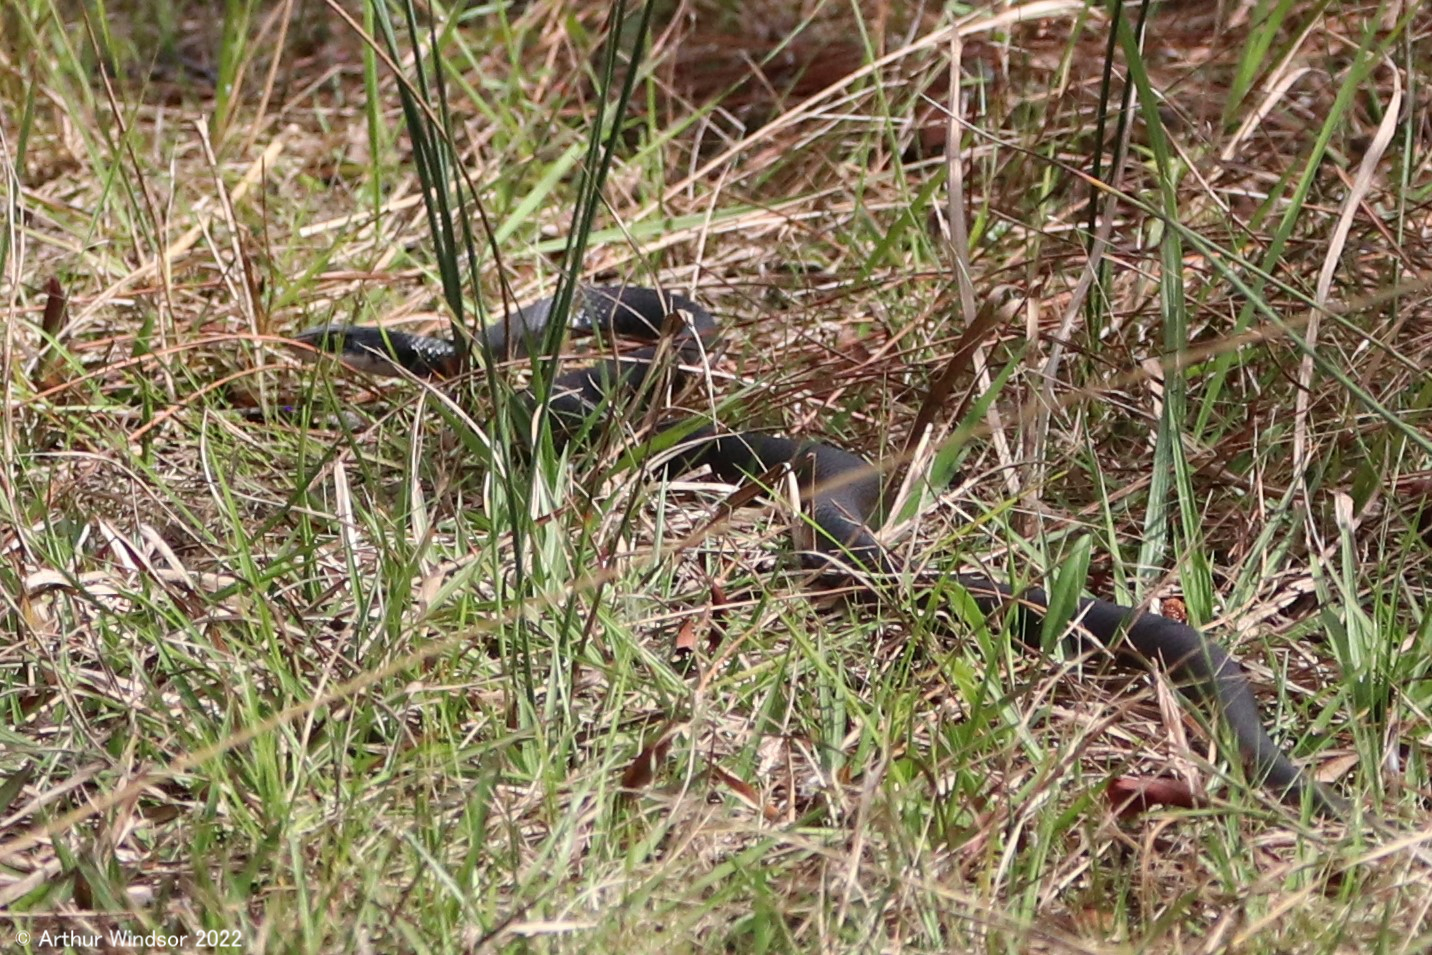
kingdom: Animalia
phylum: Chordata
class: Squamata
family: Colubridae
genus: Coluber
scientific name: Coluber constrictor
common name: Eastern racer
